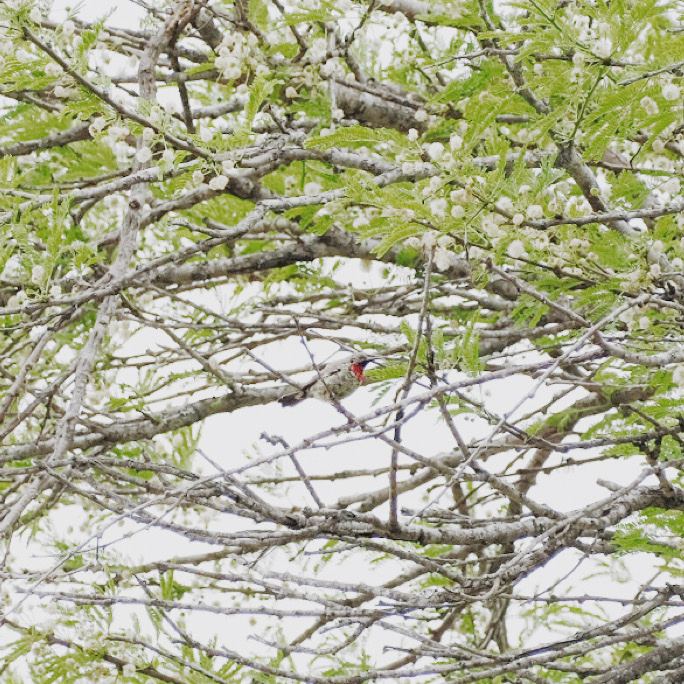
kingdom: Animalia
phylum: Chordata
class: Aves
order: Passeriformes
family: Nectariniidae
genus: Chalcomitra
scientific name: Chalcomitra senegalensis
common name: Scarlet-chested sunbird
